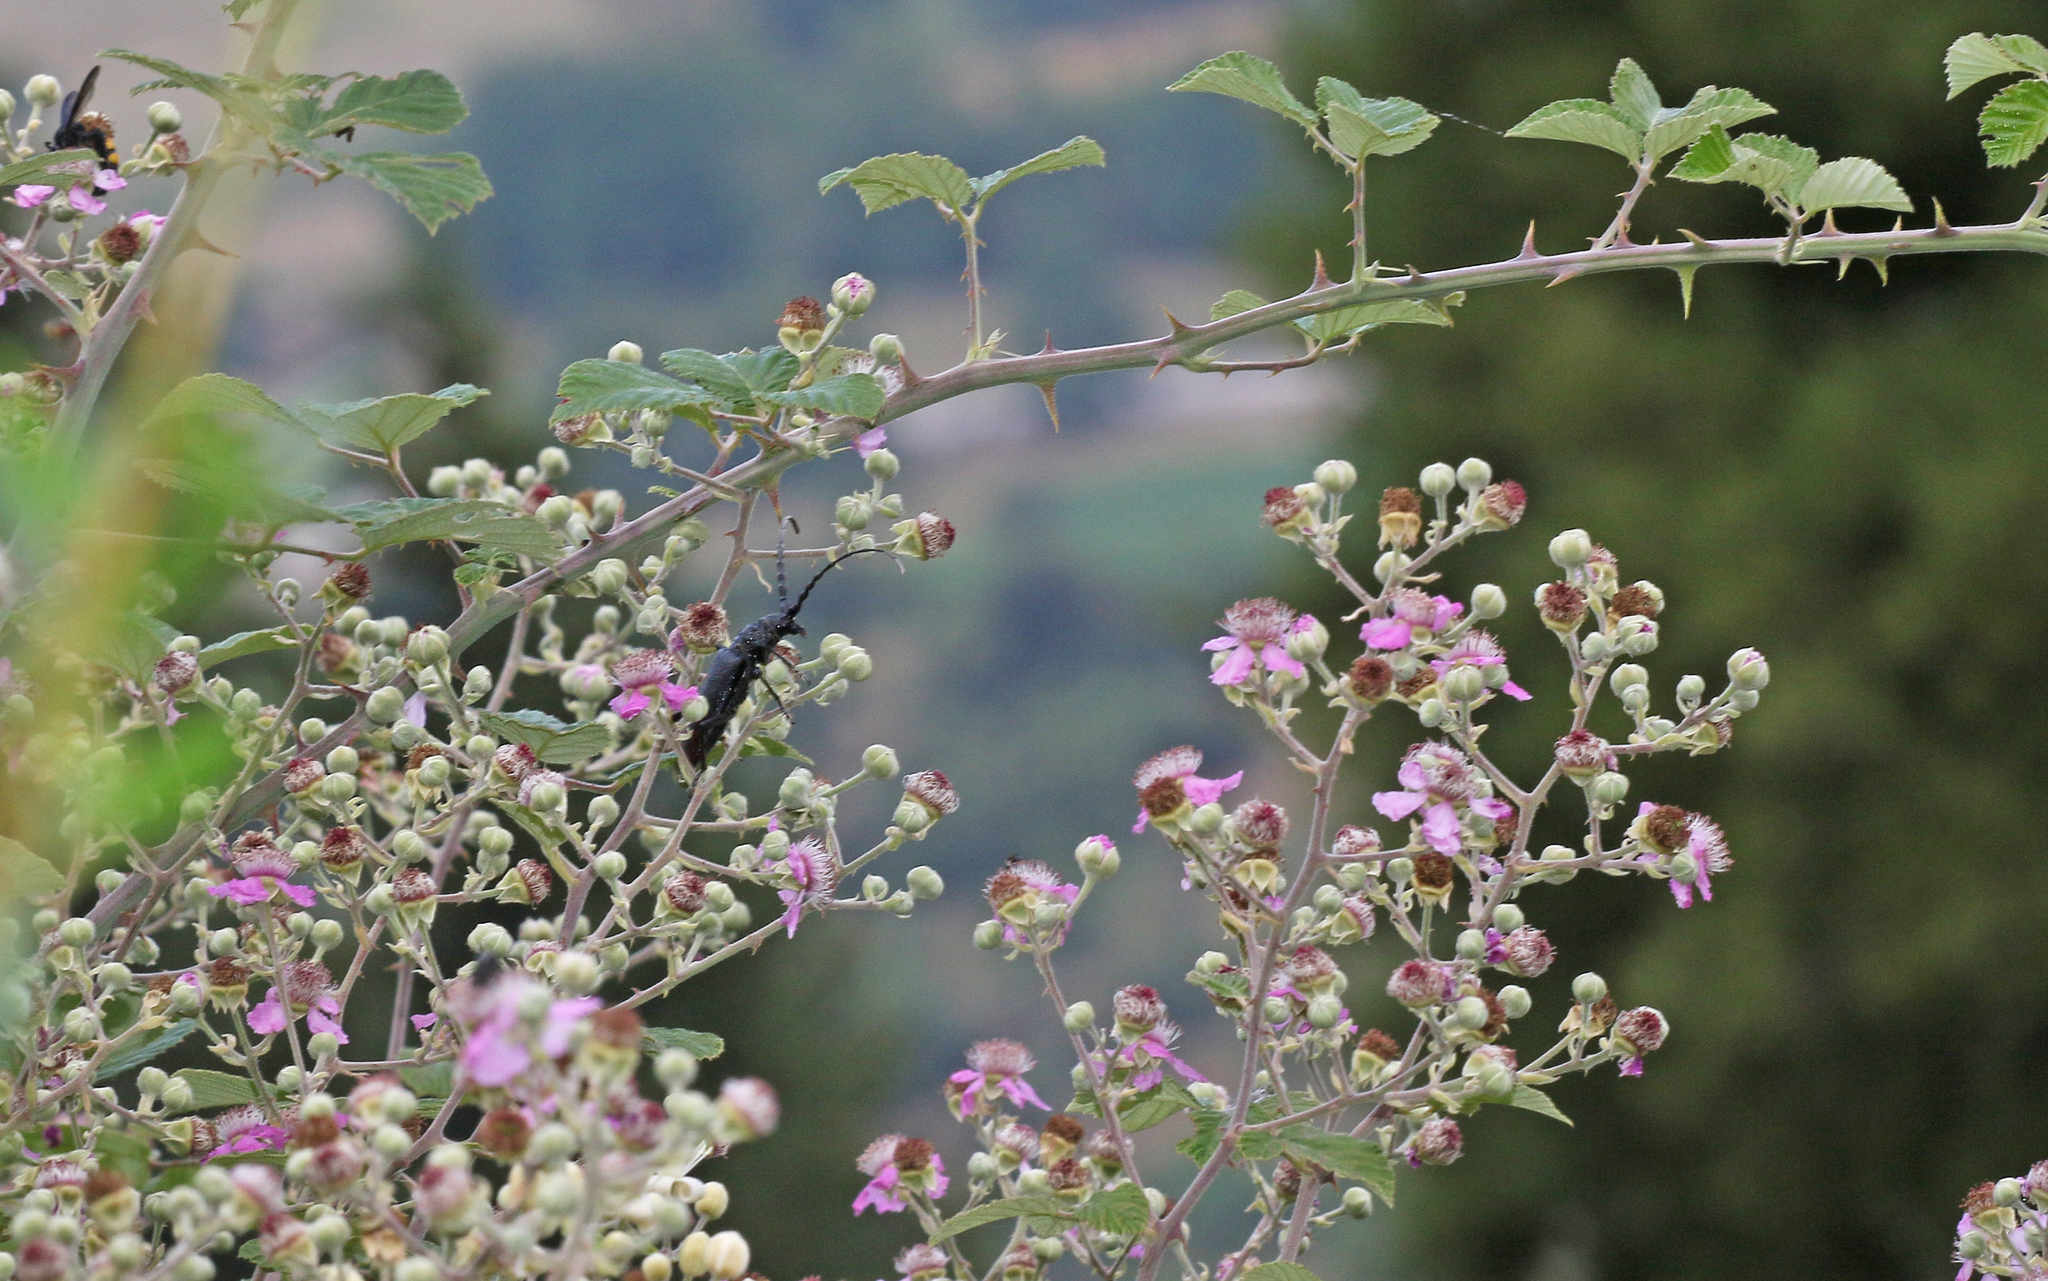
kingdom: Animalia
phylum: Arthropoda
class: Insecta
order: Coleoptera
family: Cerambycidae
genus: Cerambyx
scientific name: Cerambyx
